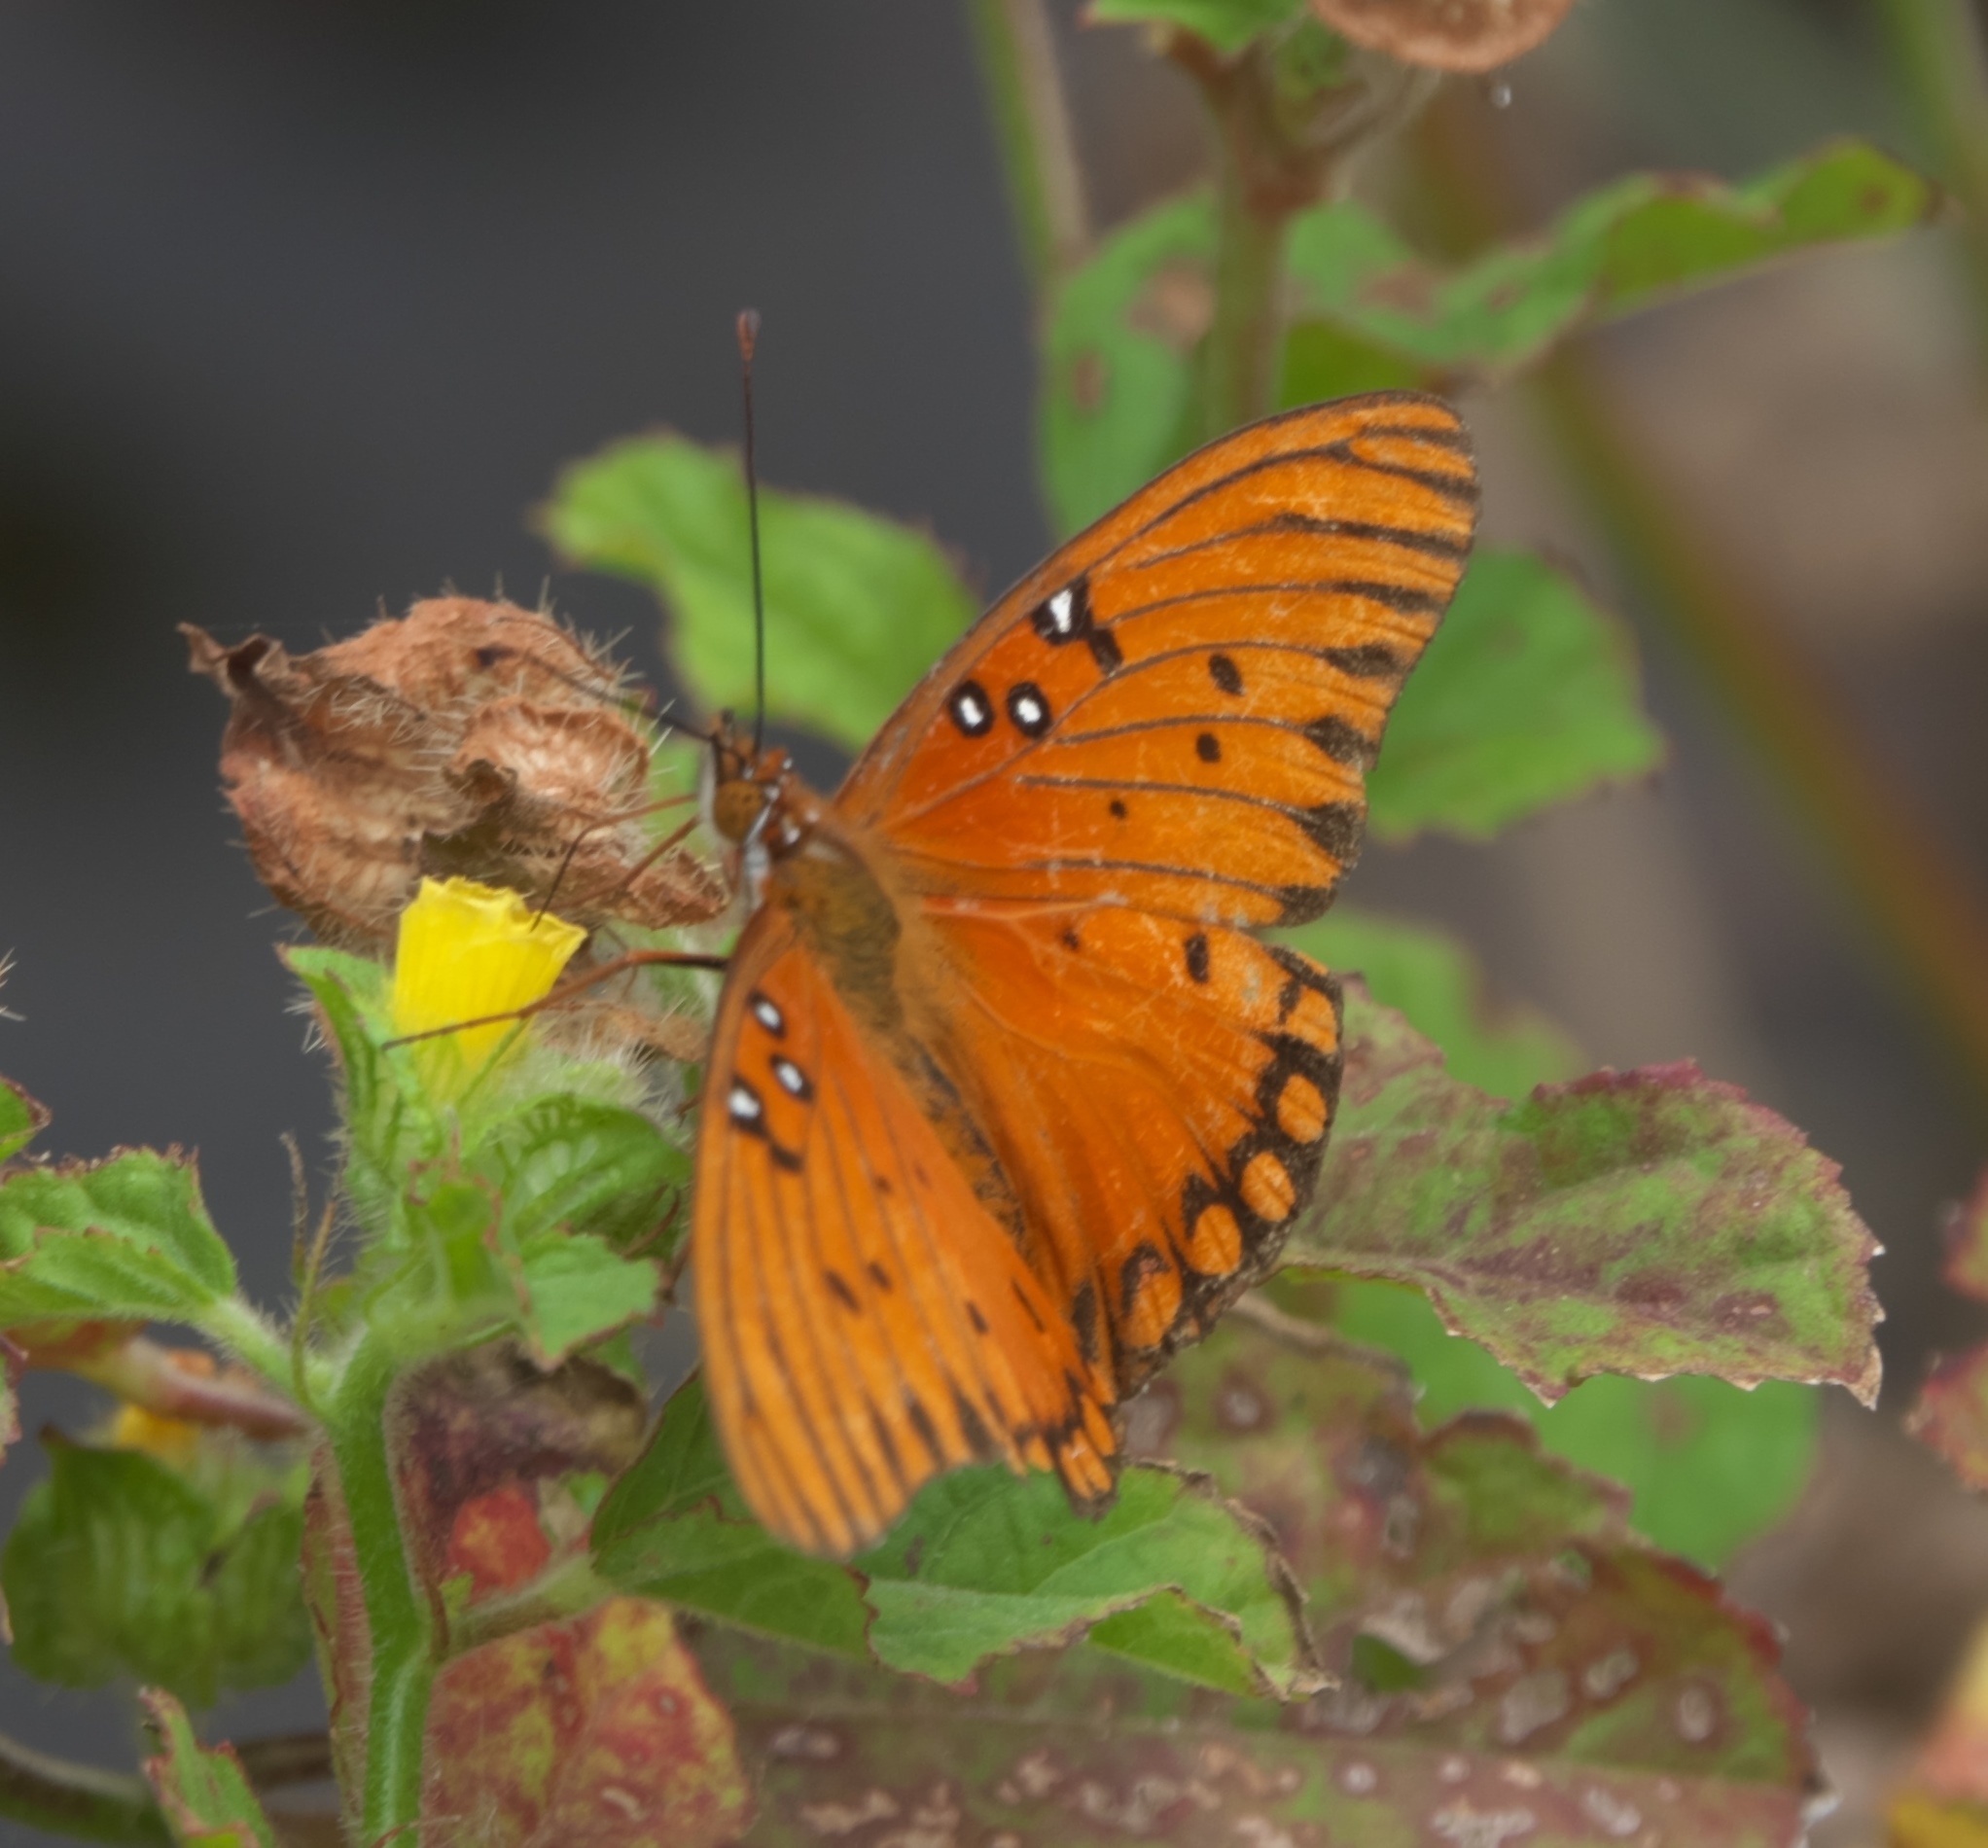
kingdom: Animalia
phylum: Arthropoda
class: Insecta
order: Lepidoptera
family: Nymphalidae
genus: Dione
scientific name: Dione vanillae
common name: Gulf fritillary
